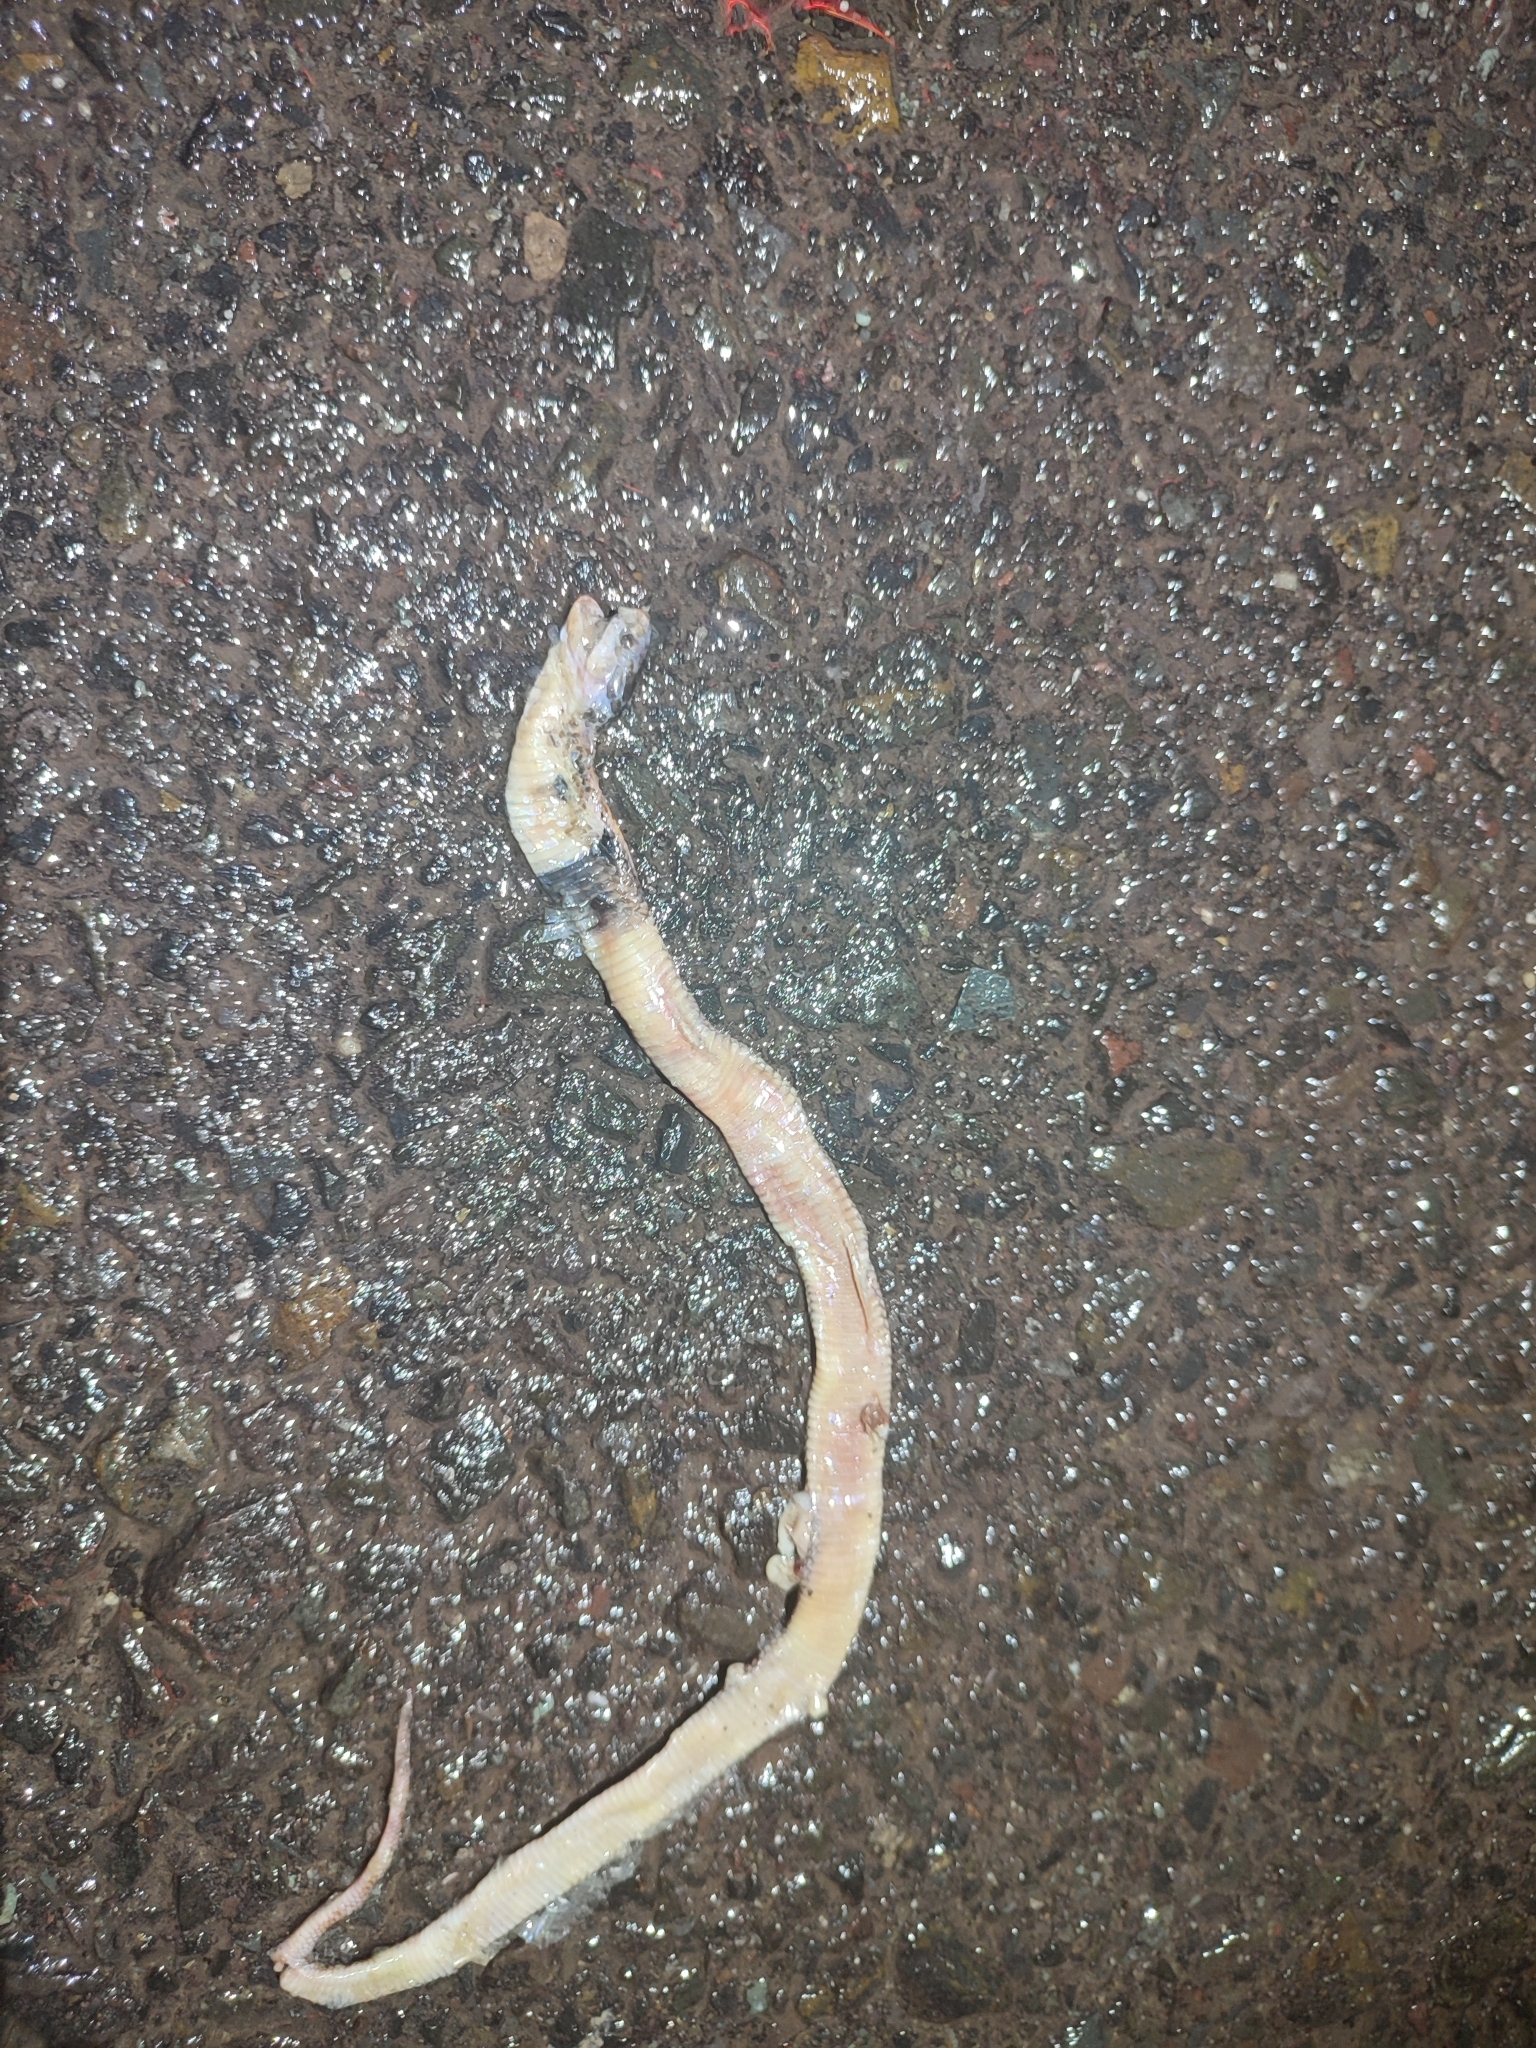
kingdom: Animalia
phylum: Chordata
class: Squamata
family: Elapidae
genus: Naja
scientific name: Naja sumatrana
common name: Equatorial spitting cobra
